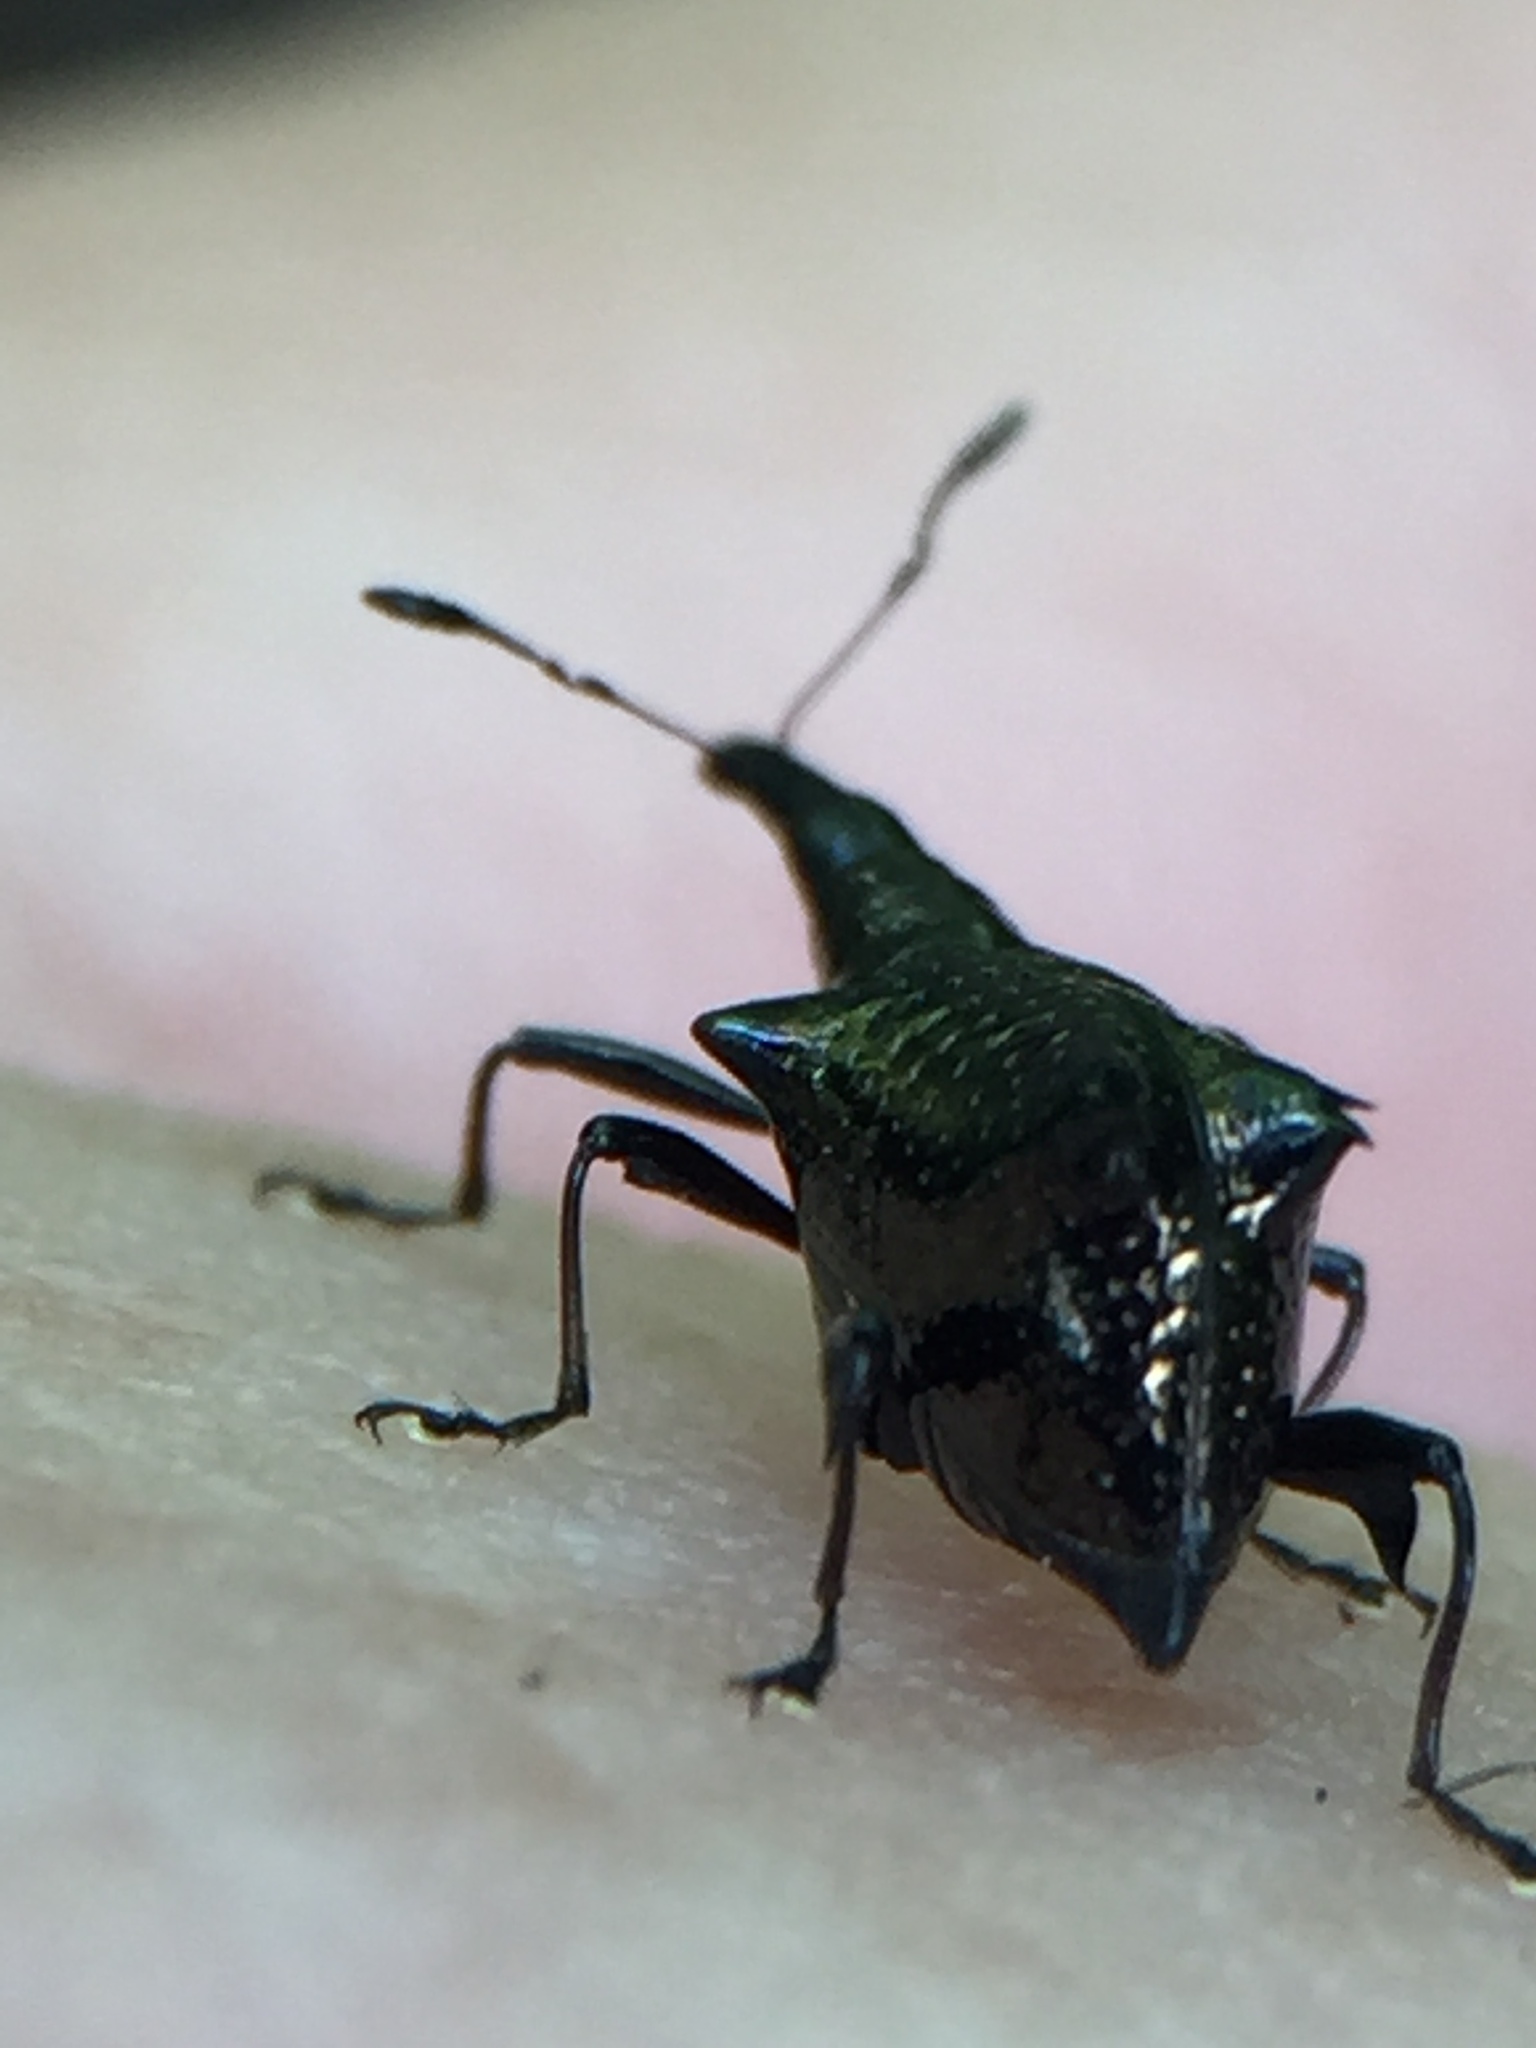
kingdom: Animalia
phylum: Arthropoda
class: Insecta
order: Coleoptera
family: Curculionidae
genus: Scolopterus
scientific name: Scolopterus tetracanthus
